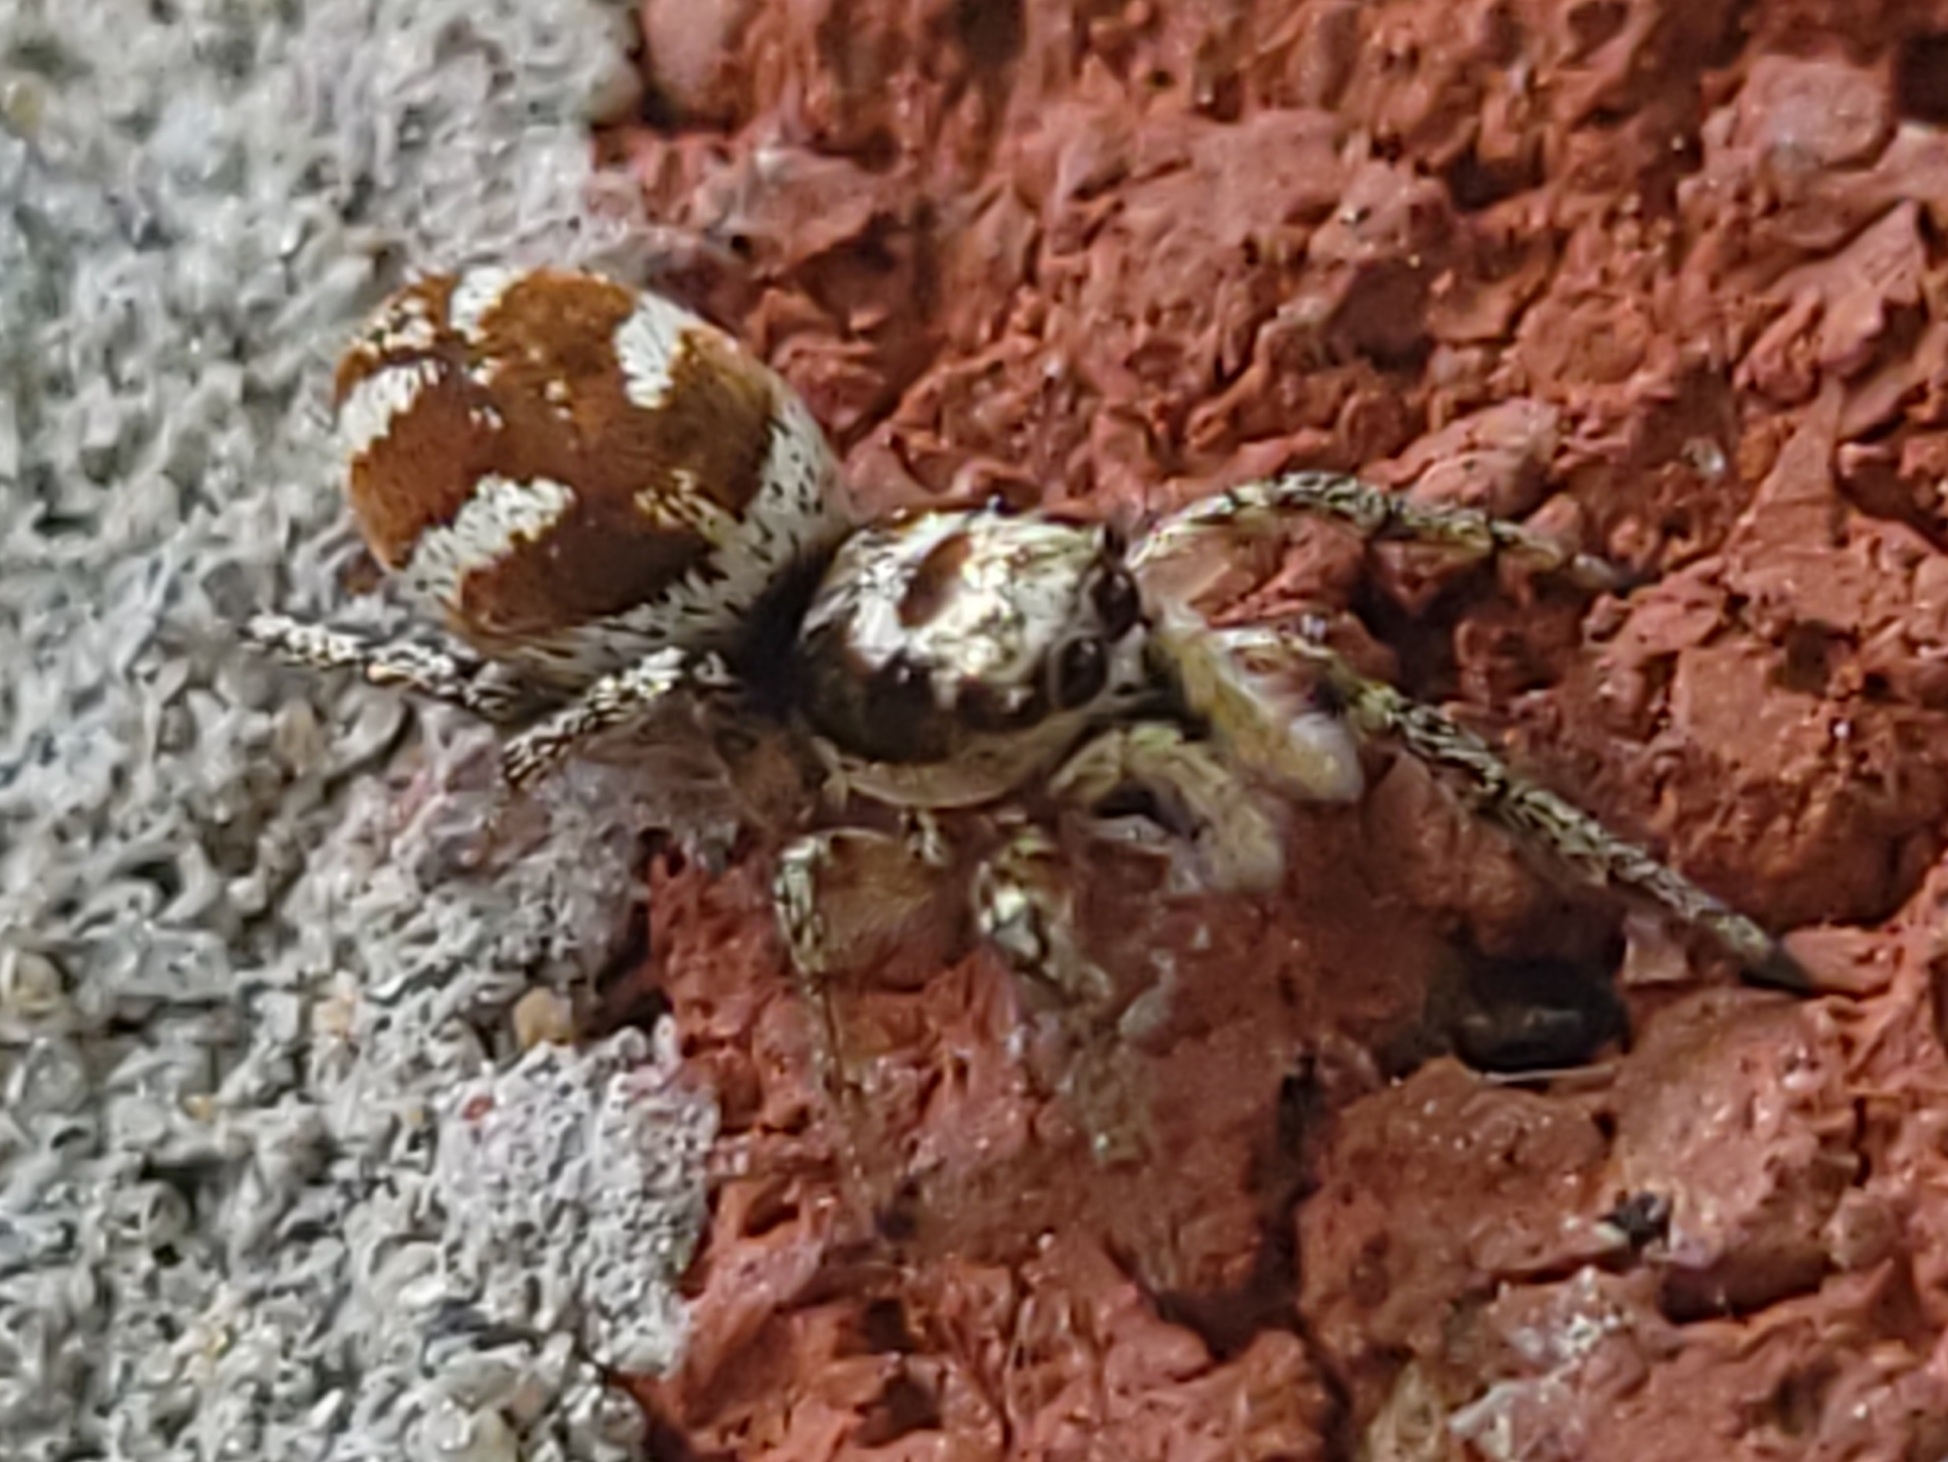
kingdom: Animalia
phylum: Arthropoda
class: Arachnida
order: Araneae
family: Salticidae
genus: Salticus
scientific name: Salticus scenicus
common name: Zebra jumper
